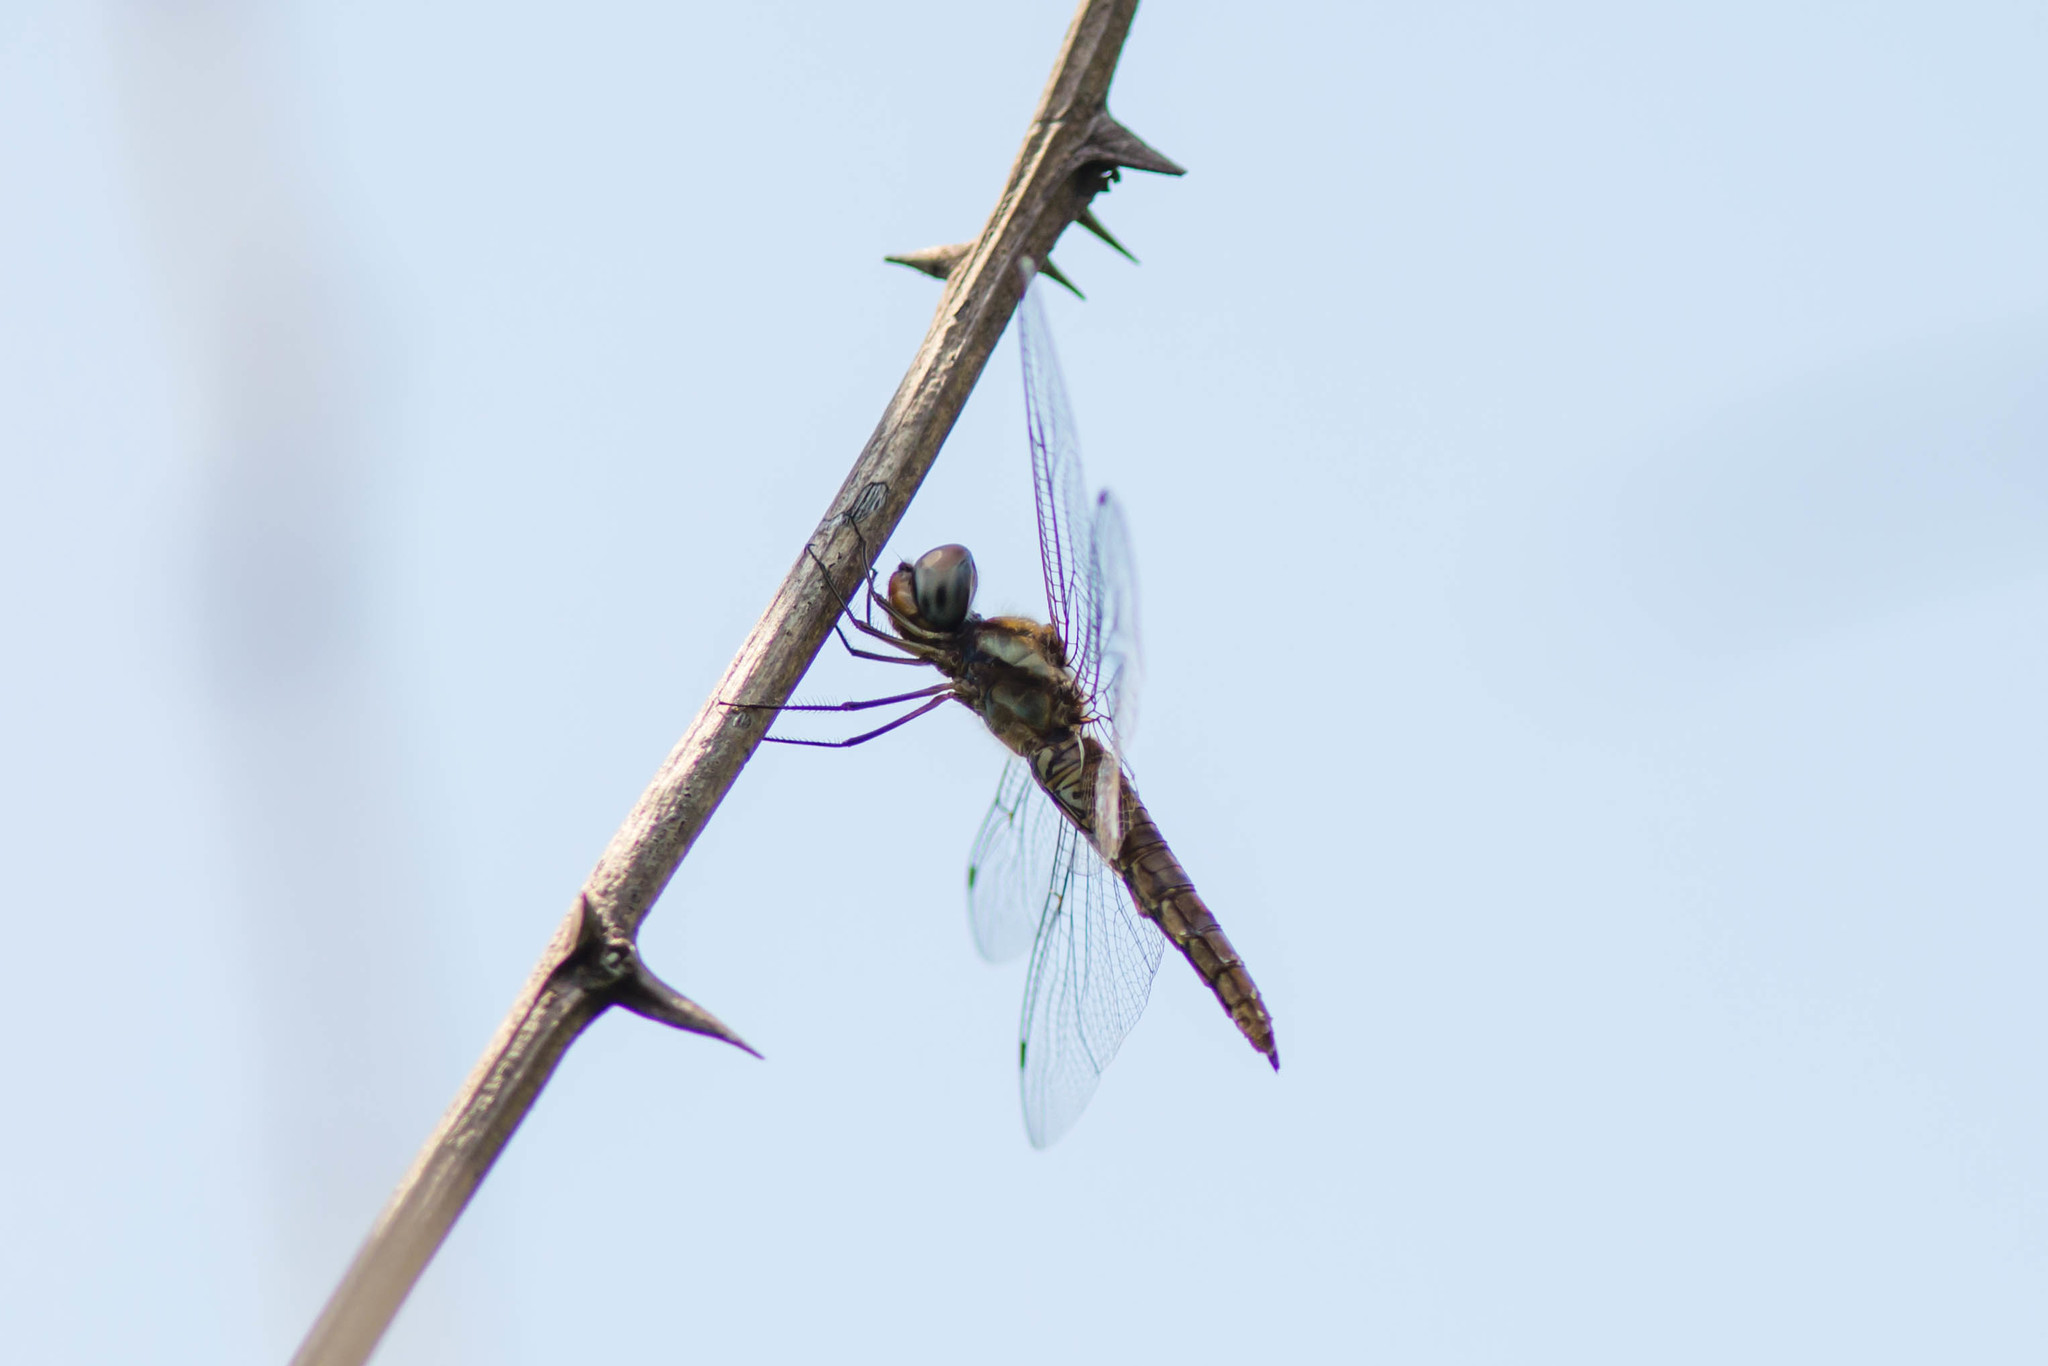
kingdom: Animalia
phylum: Arthropoda
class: Insecta
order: Odonata
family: Libellulidae
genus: Pantala
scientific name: Pantala hymenaea
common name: Spot-winged glider
